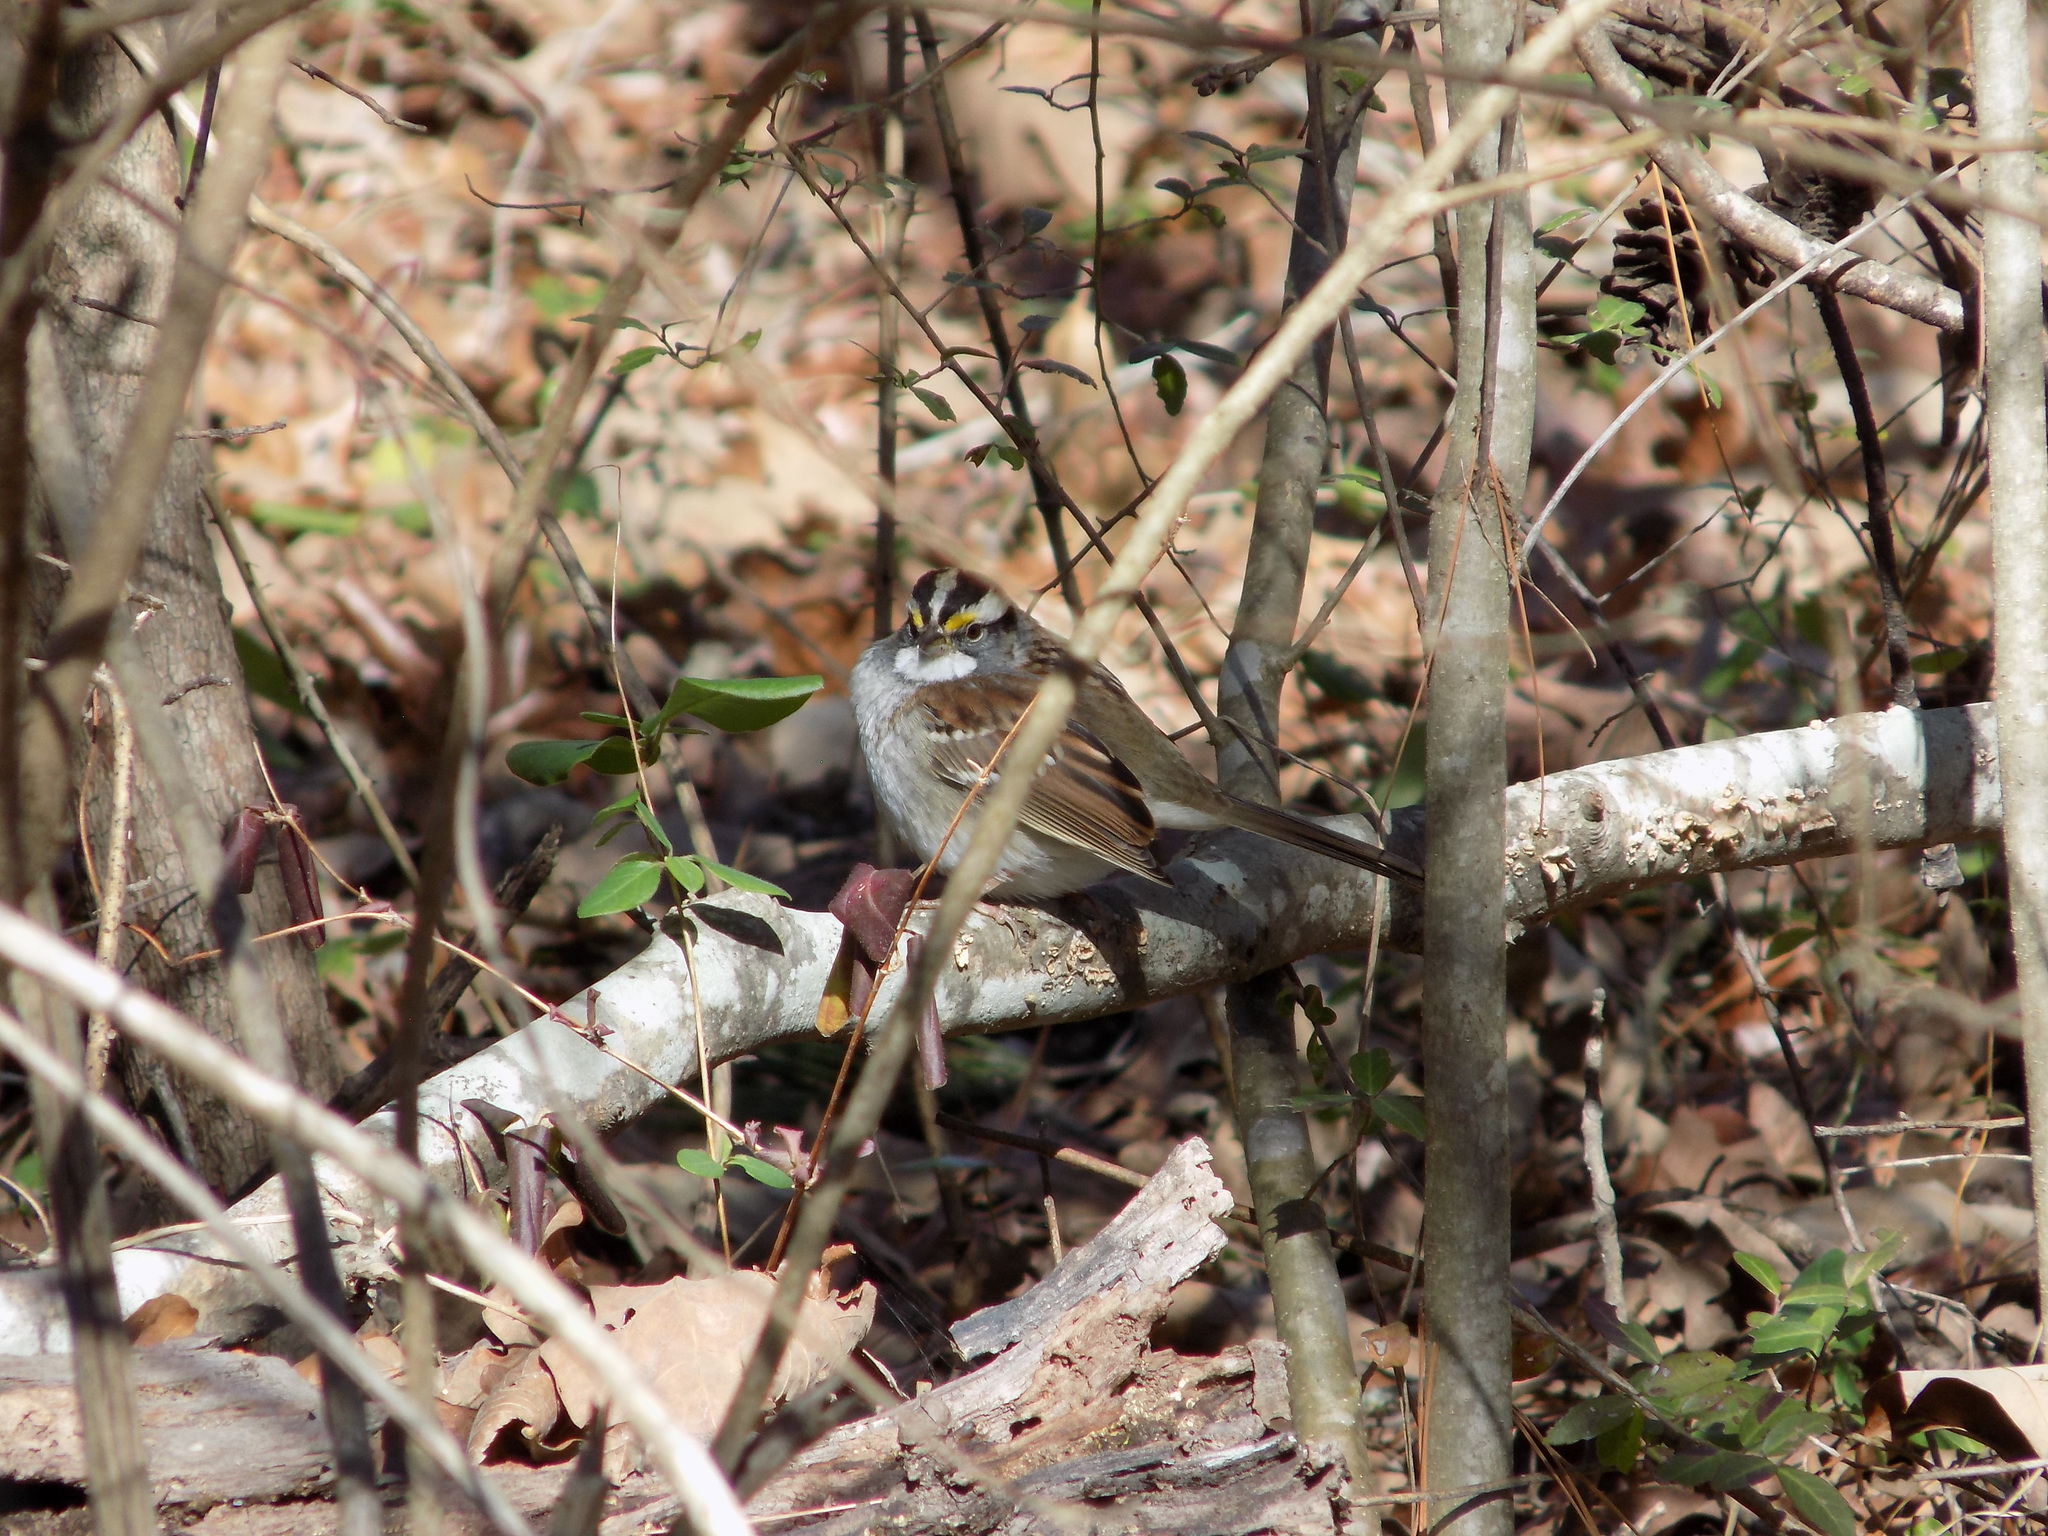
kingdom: Animalia
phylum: Chordata
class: Aves
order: Passeriformes
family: Passerellidae
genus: Zonotrichia
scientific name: Zonotrichia albicollis
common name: White-throated sparrow
